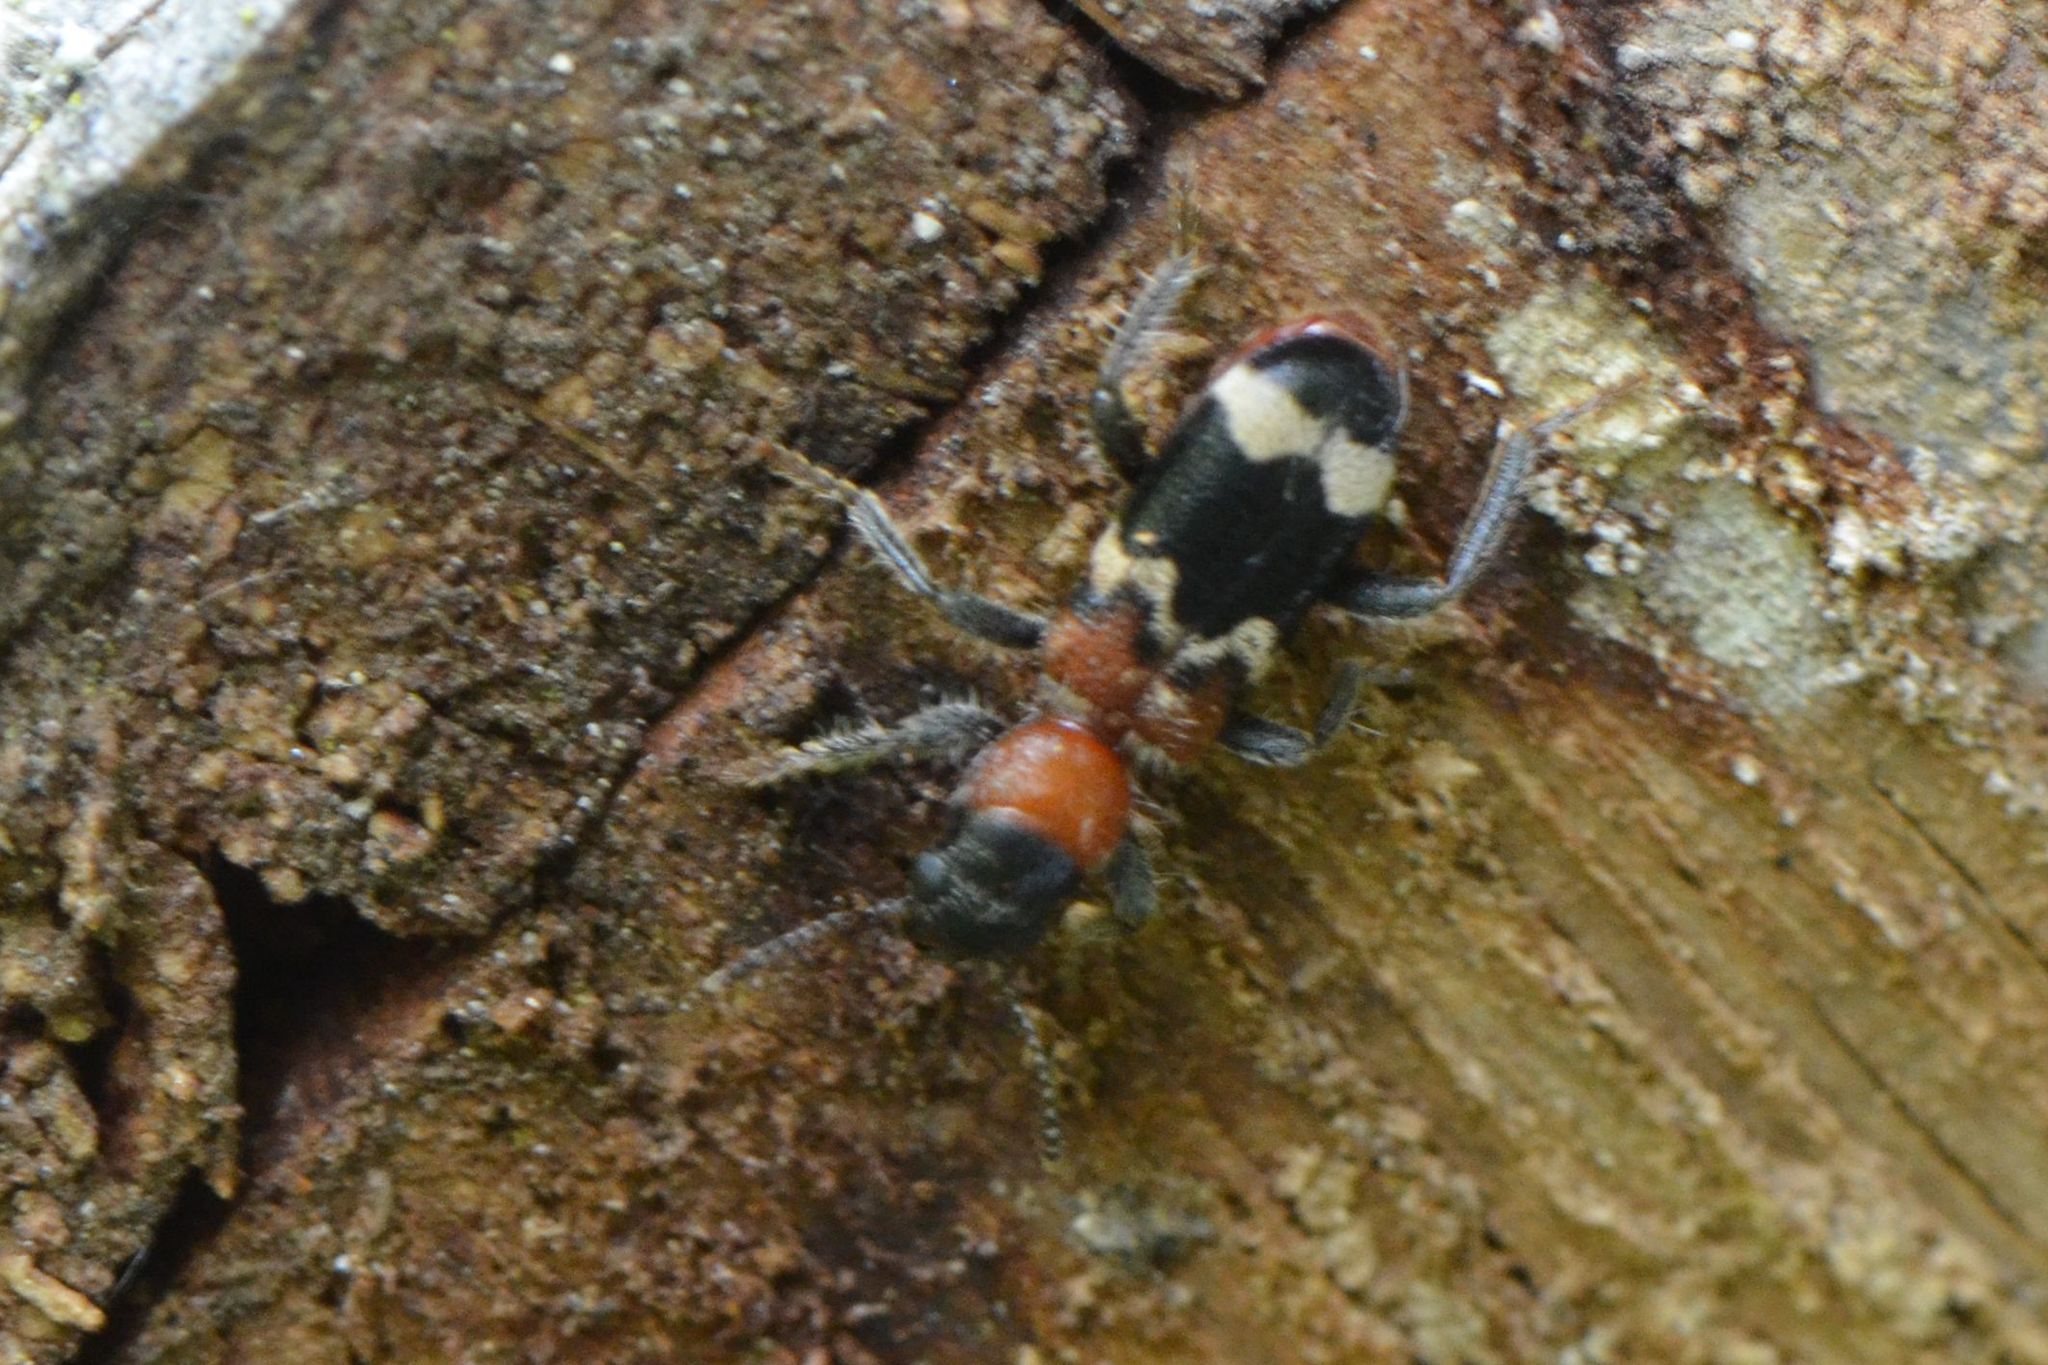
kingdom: Animalia
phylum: Arthropoda
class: Insecta
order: Coleoptera
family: Cleridae
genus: Thanasimus
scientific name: Thanasimus formicarius
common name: Ant beetle
